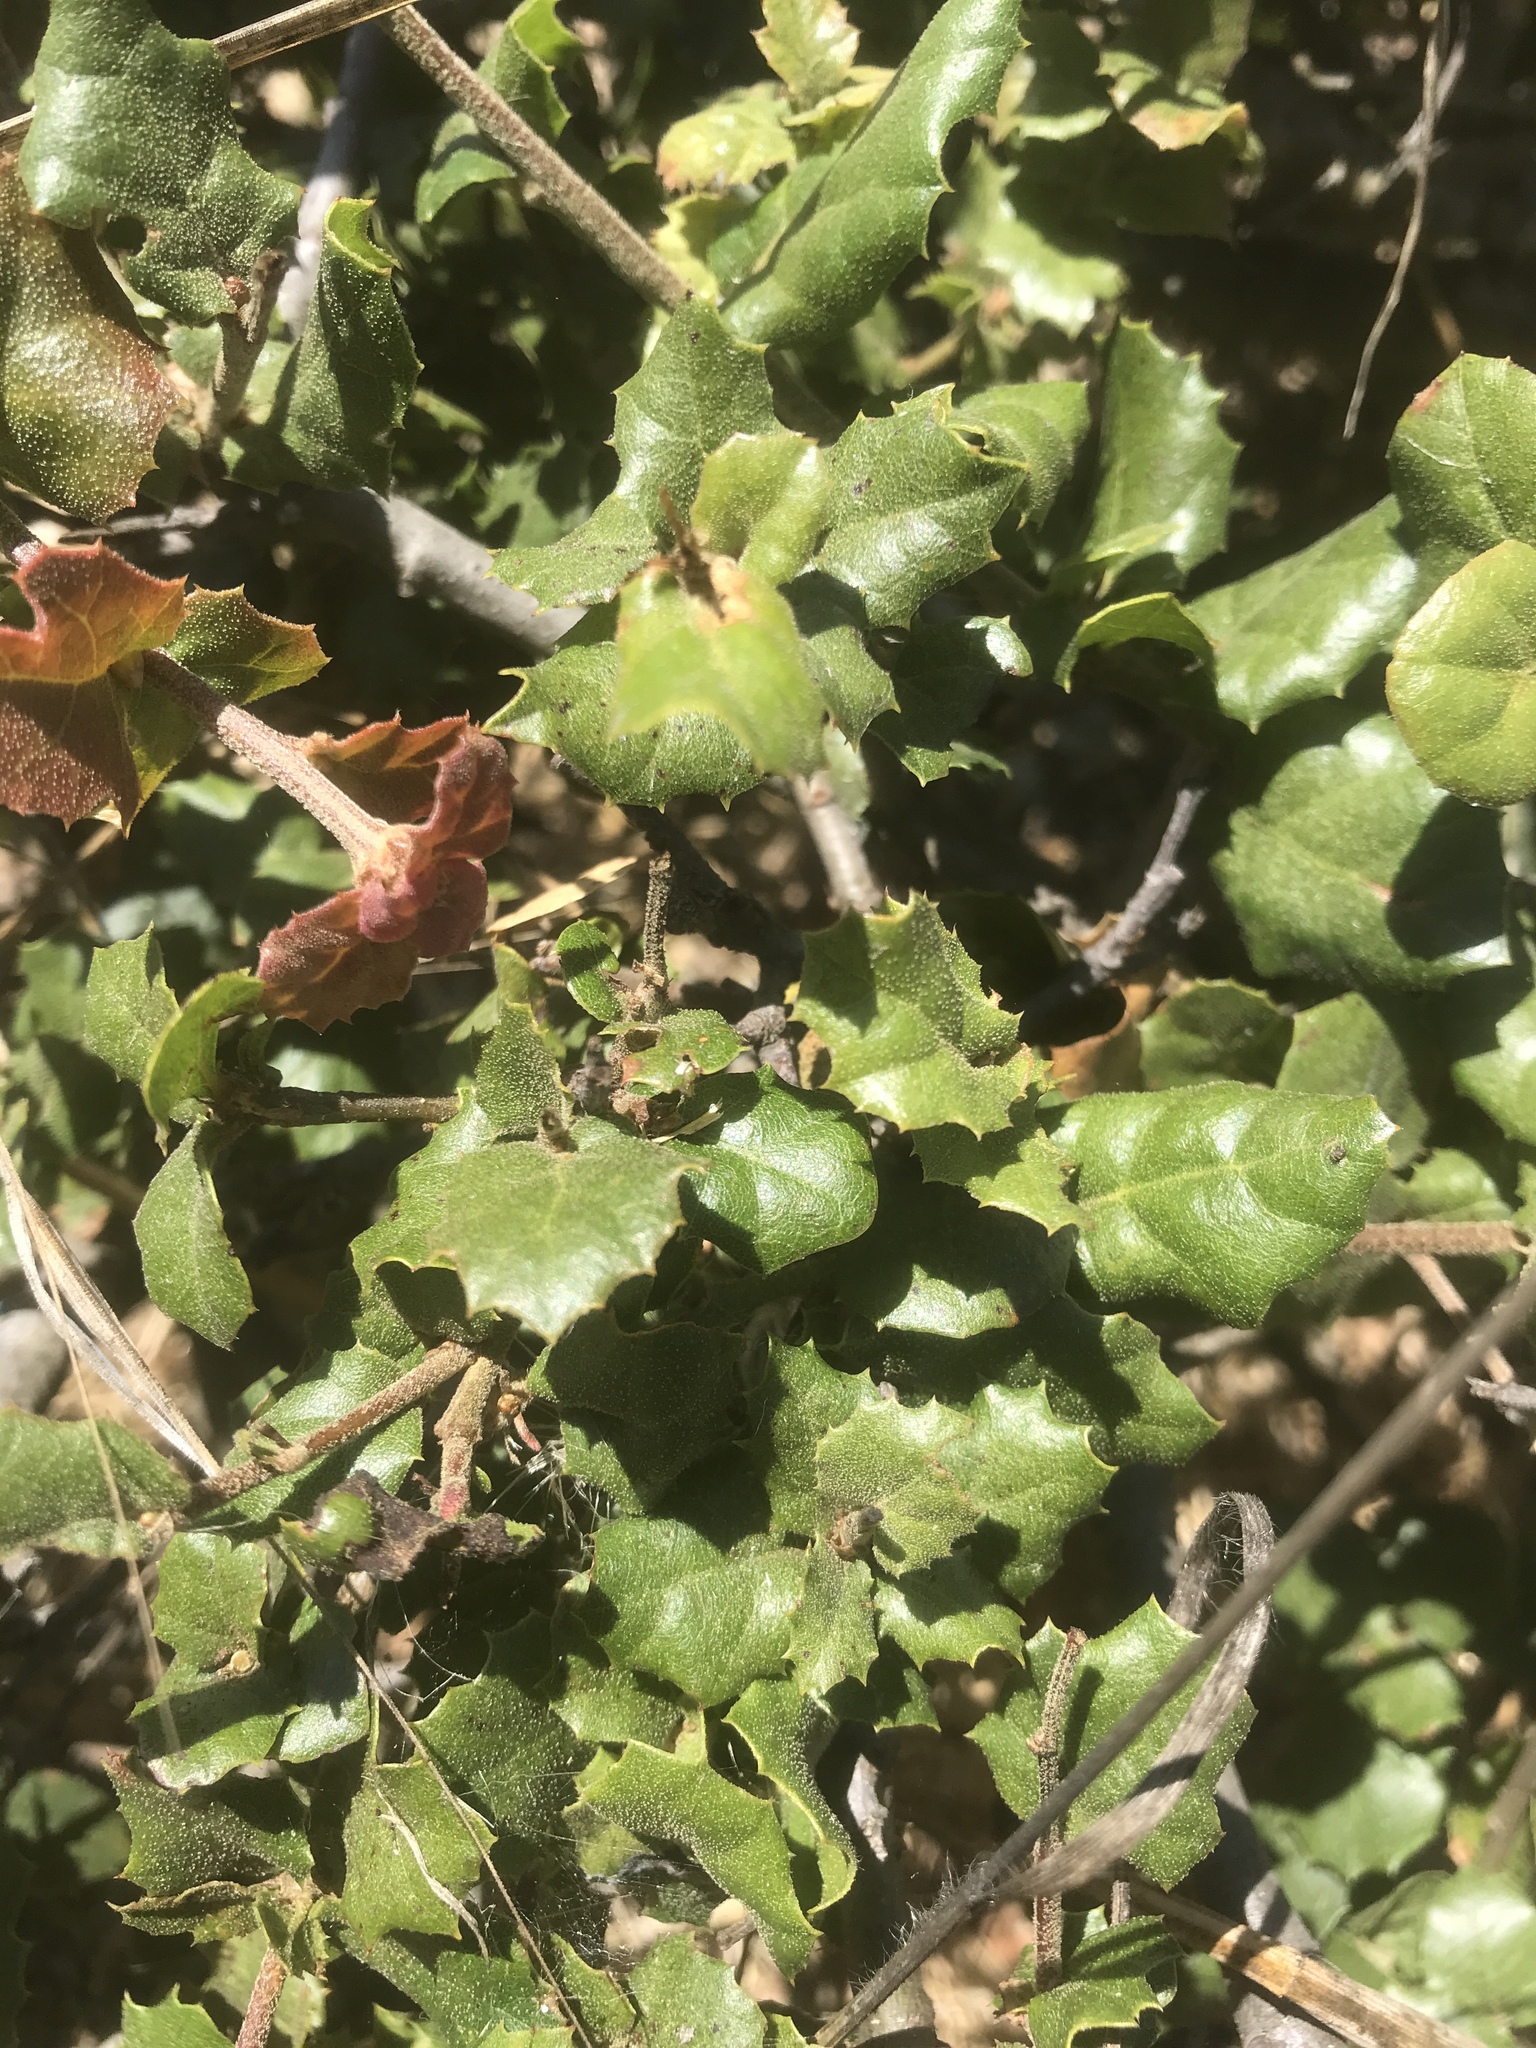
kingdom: Plantae
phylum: Tracheophyta
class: Magnoliopsida
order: Fagales
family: Fagaceae
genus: Quercus
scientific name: Quercus agrifolia
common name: California live oak
